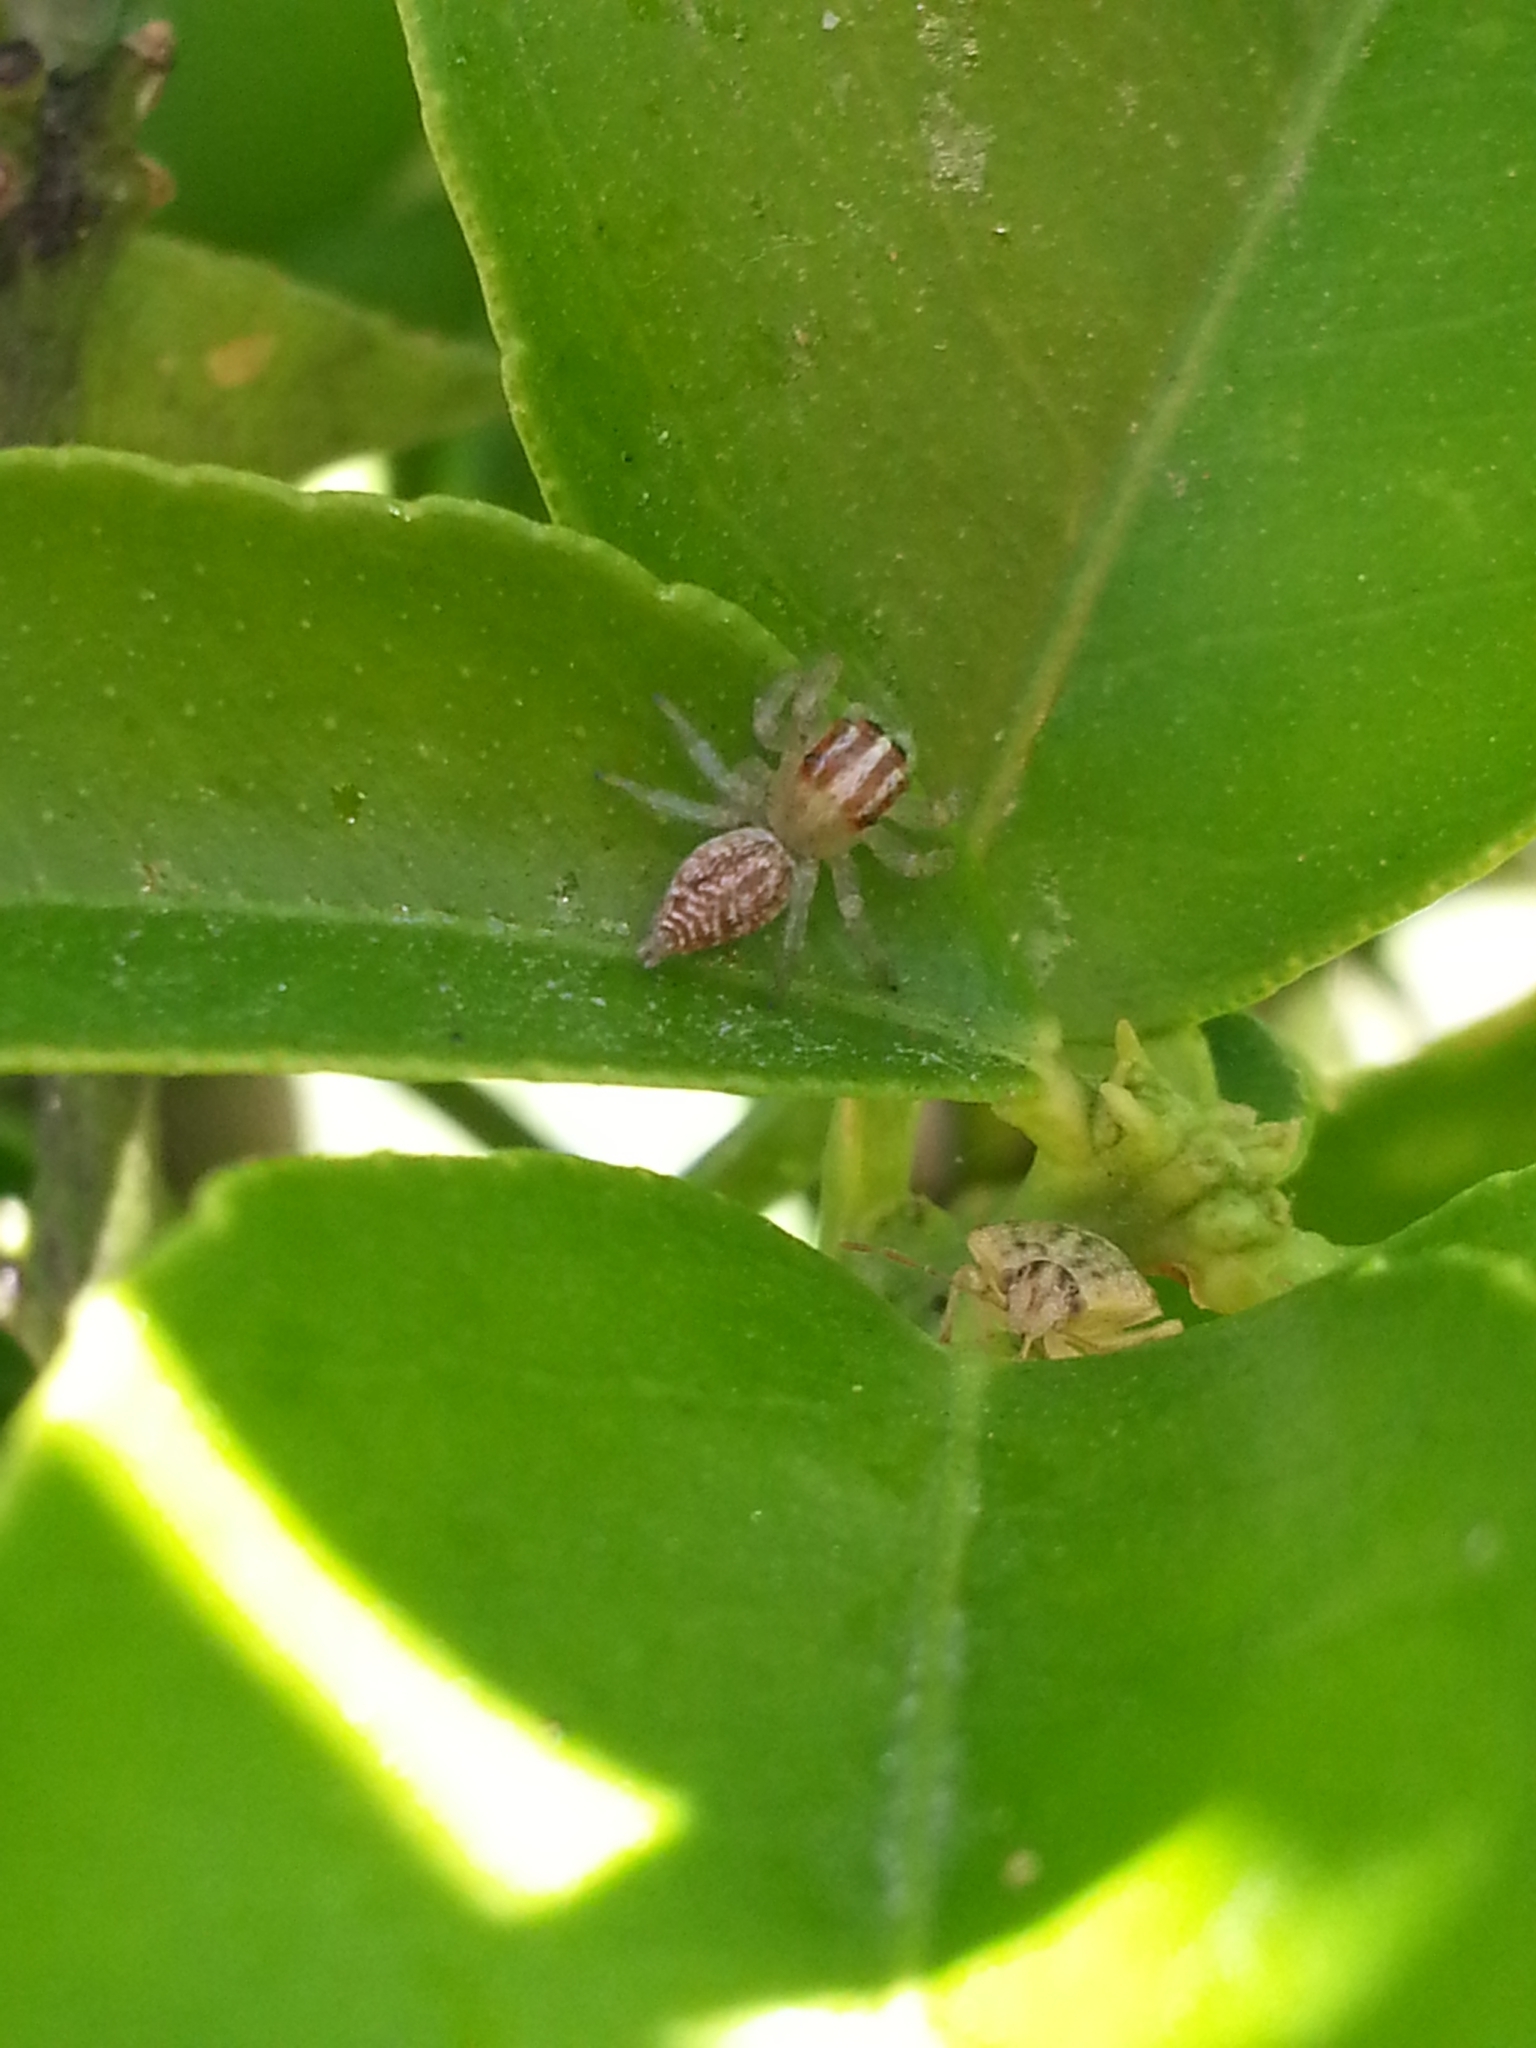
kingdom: Animalia
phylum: Arthropoda
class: Arachnida
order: Araneae
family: Salticidae
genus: Chira
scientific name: Chira gounellei
